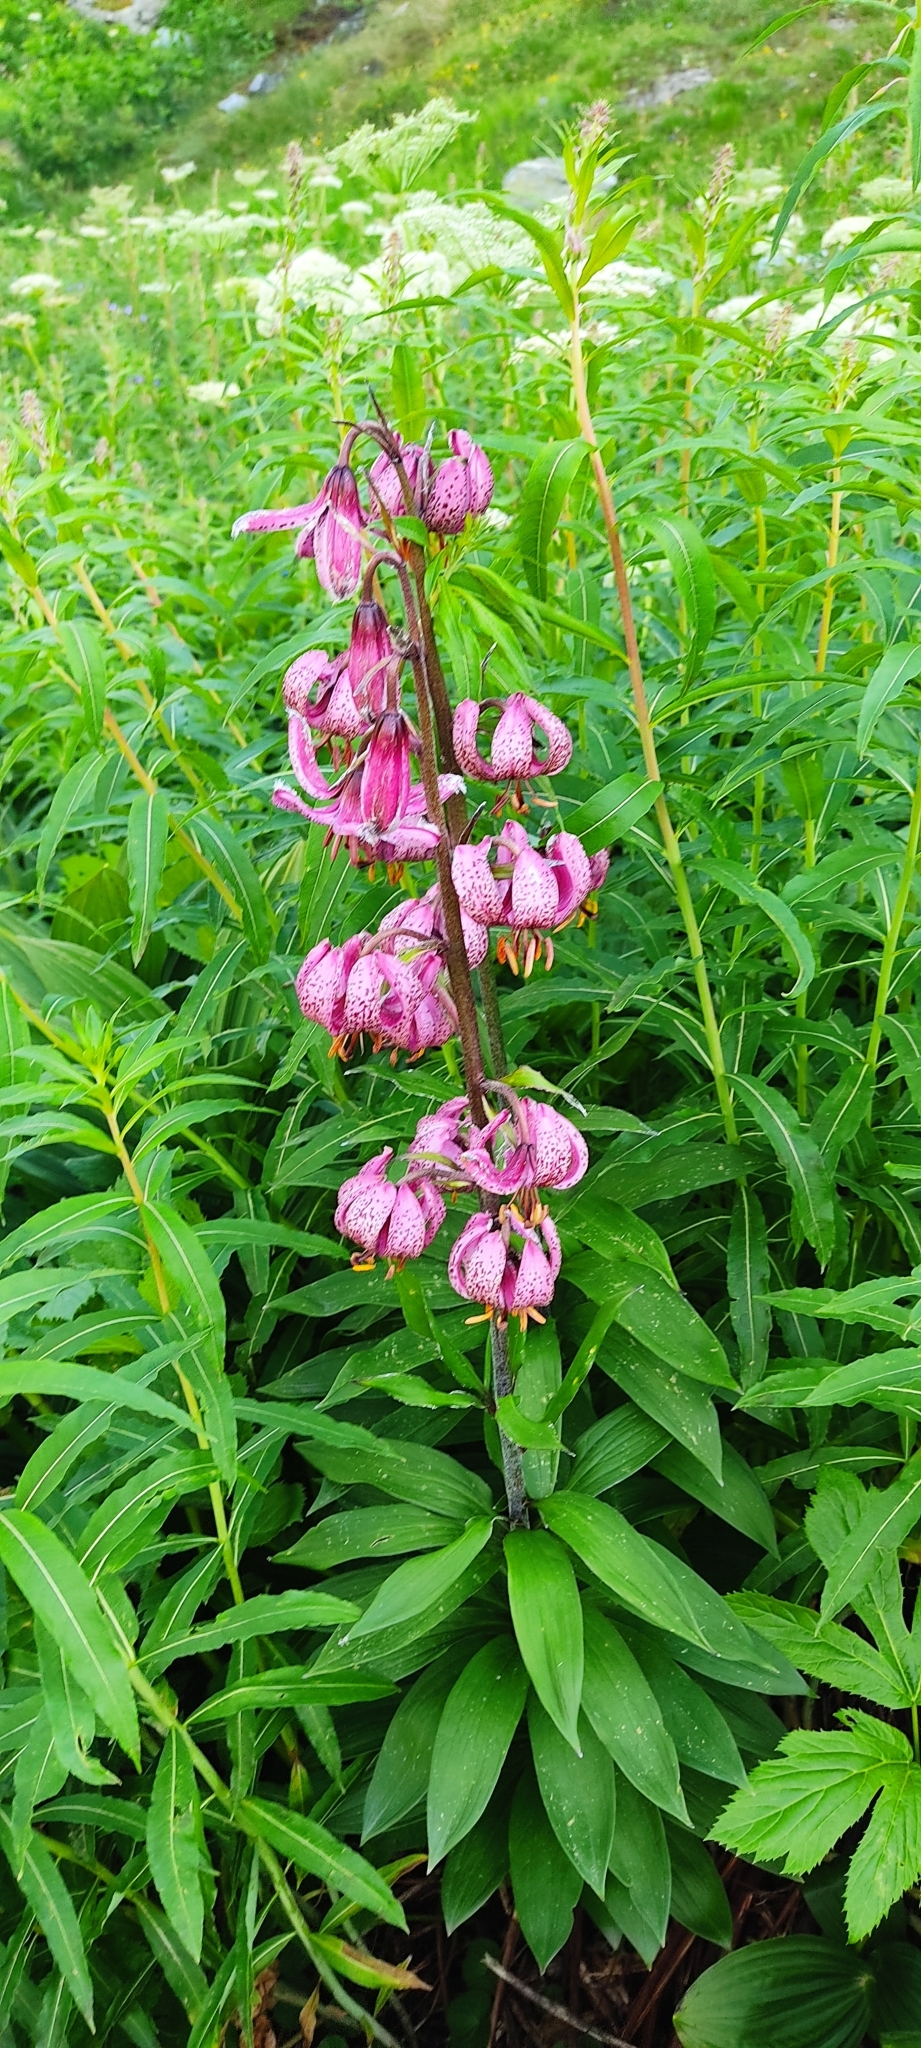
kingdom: Plantae
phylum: Tracheophyta
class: Liliopsida
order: Liliales
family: Liliaceae
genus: Lilium
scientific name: Lilium martagon
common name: Martagon lily
